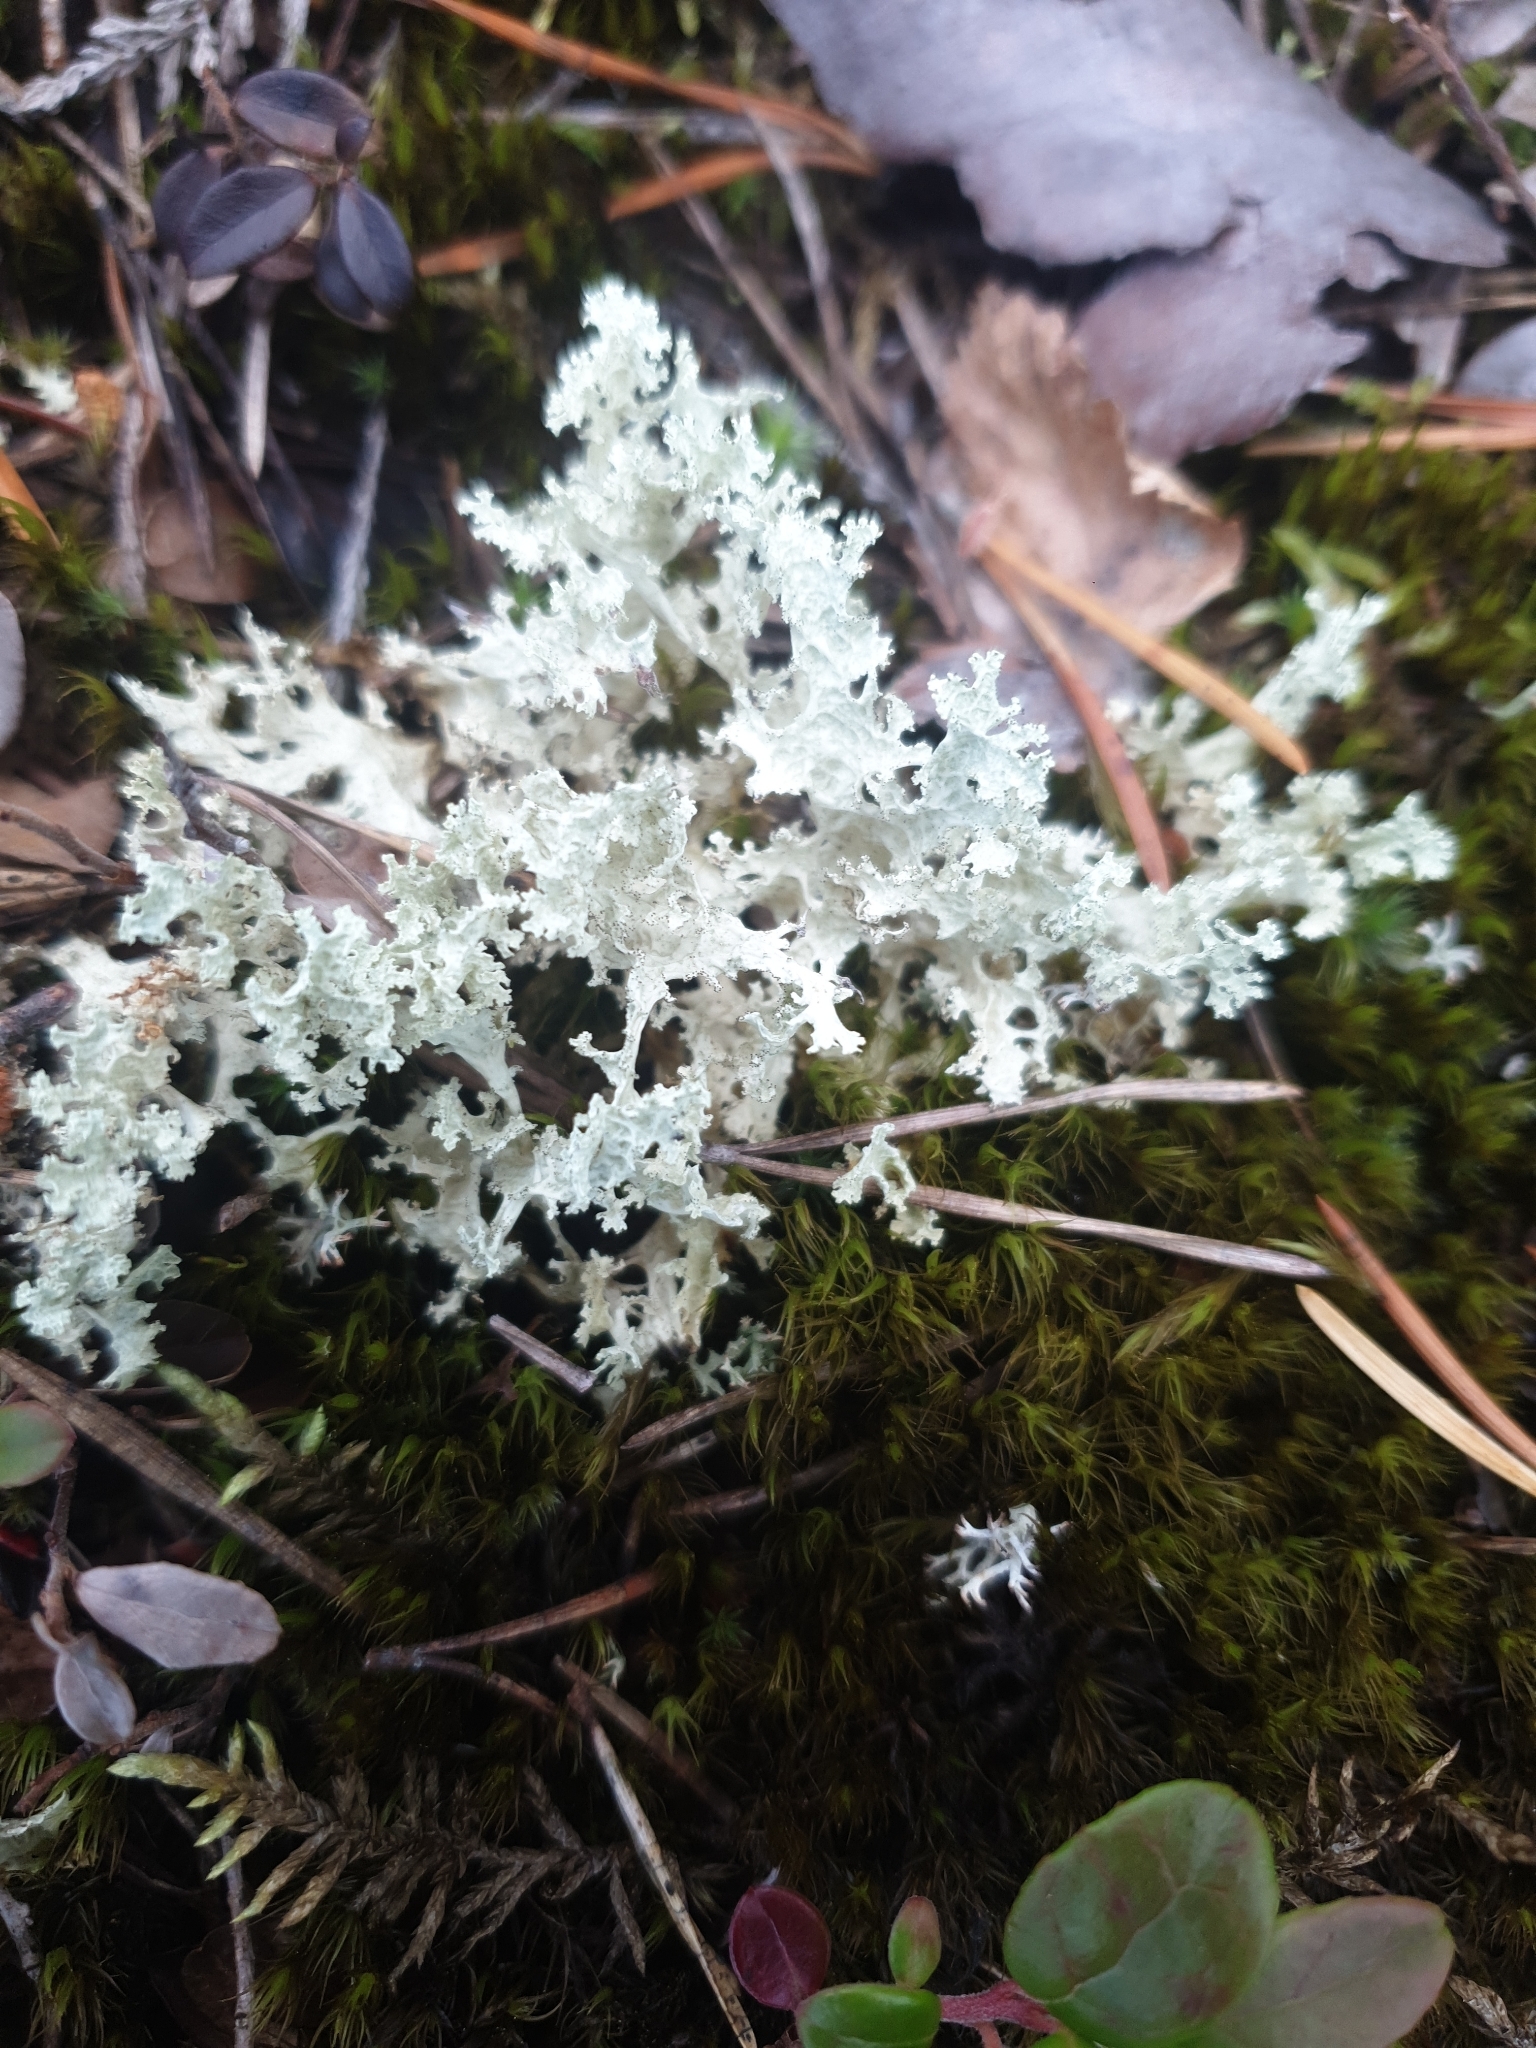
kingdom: Fungi
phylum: Ascomycota
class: Lecanoromycetes
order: Lecanorales
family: Parmeliaceae
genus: Nephromopsis
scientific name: Nephromopsis nivalis
